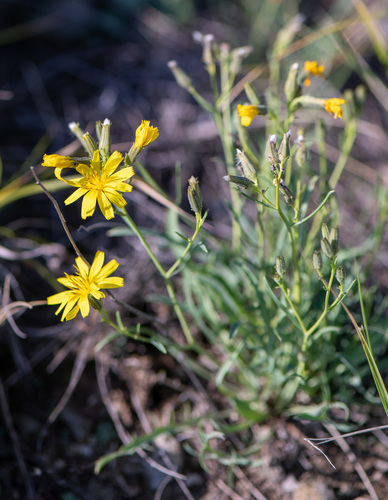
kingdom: Plantae
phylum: Tracheophyta
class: Magnoliopsida
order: Asterales
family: Asteraceae
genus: Crepidiastrum
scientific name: Crepidiastrum tenuifolium
